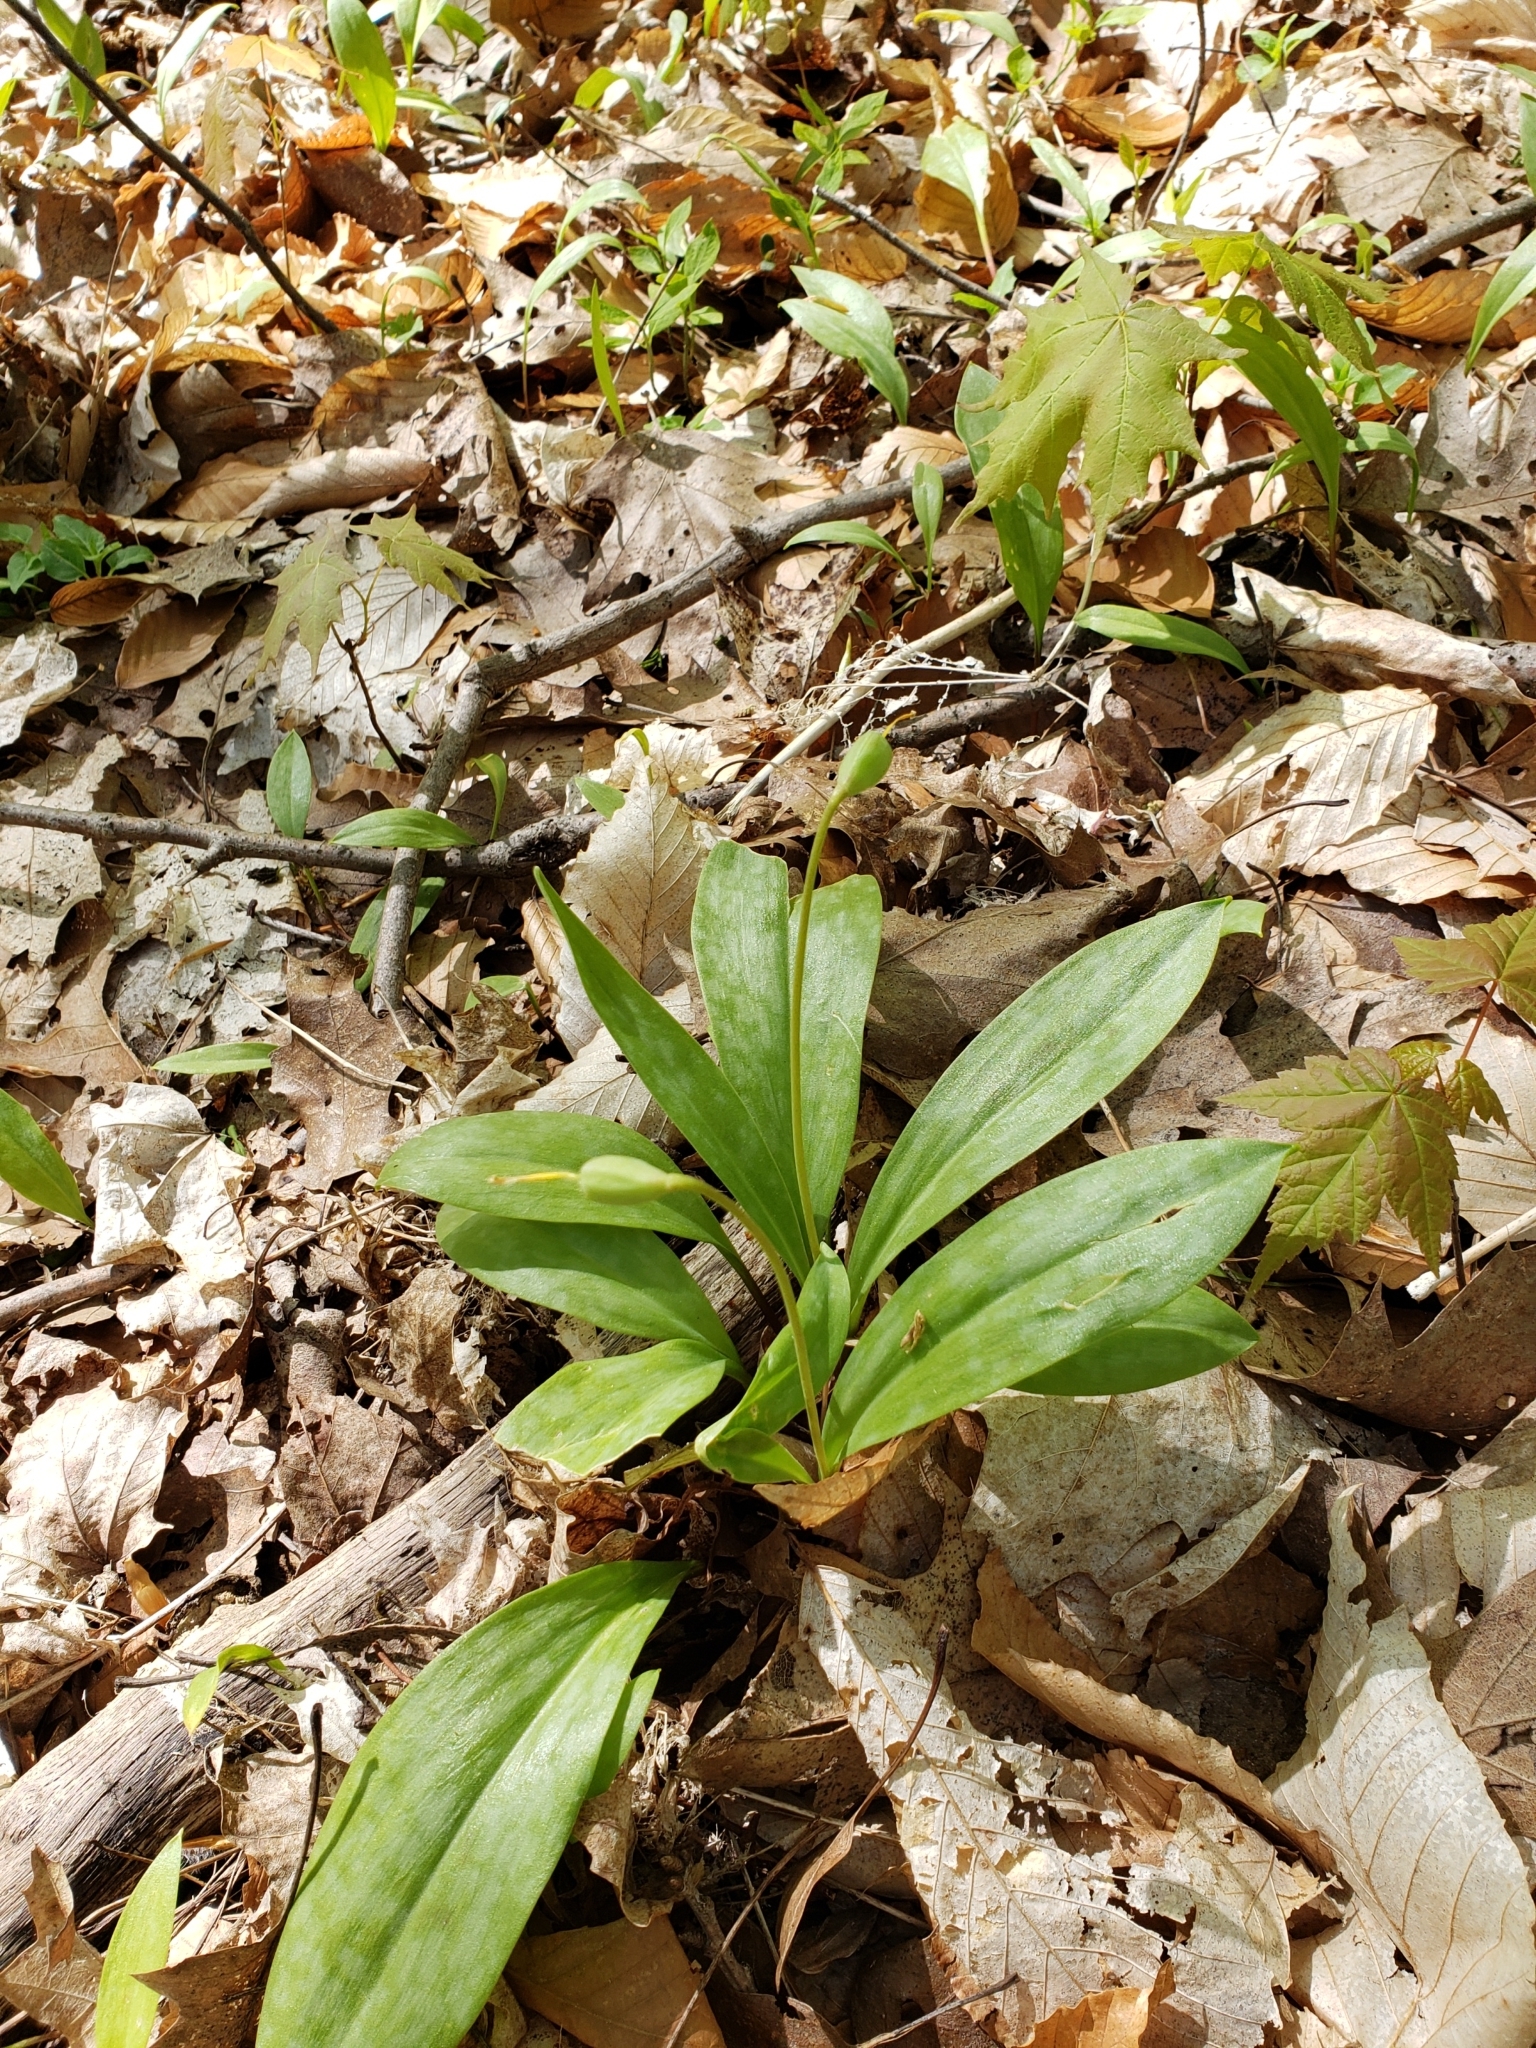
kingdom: Plantae
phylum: Tracheophyta
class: Liliopsida
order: Liliales
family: Liliaceae
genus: Erythronium
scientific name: Erythronium americanum
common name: Yellow adder's-tongue
